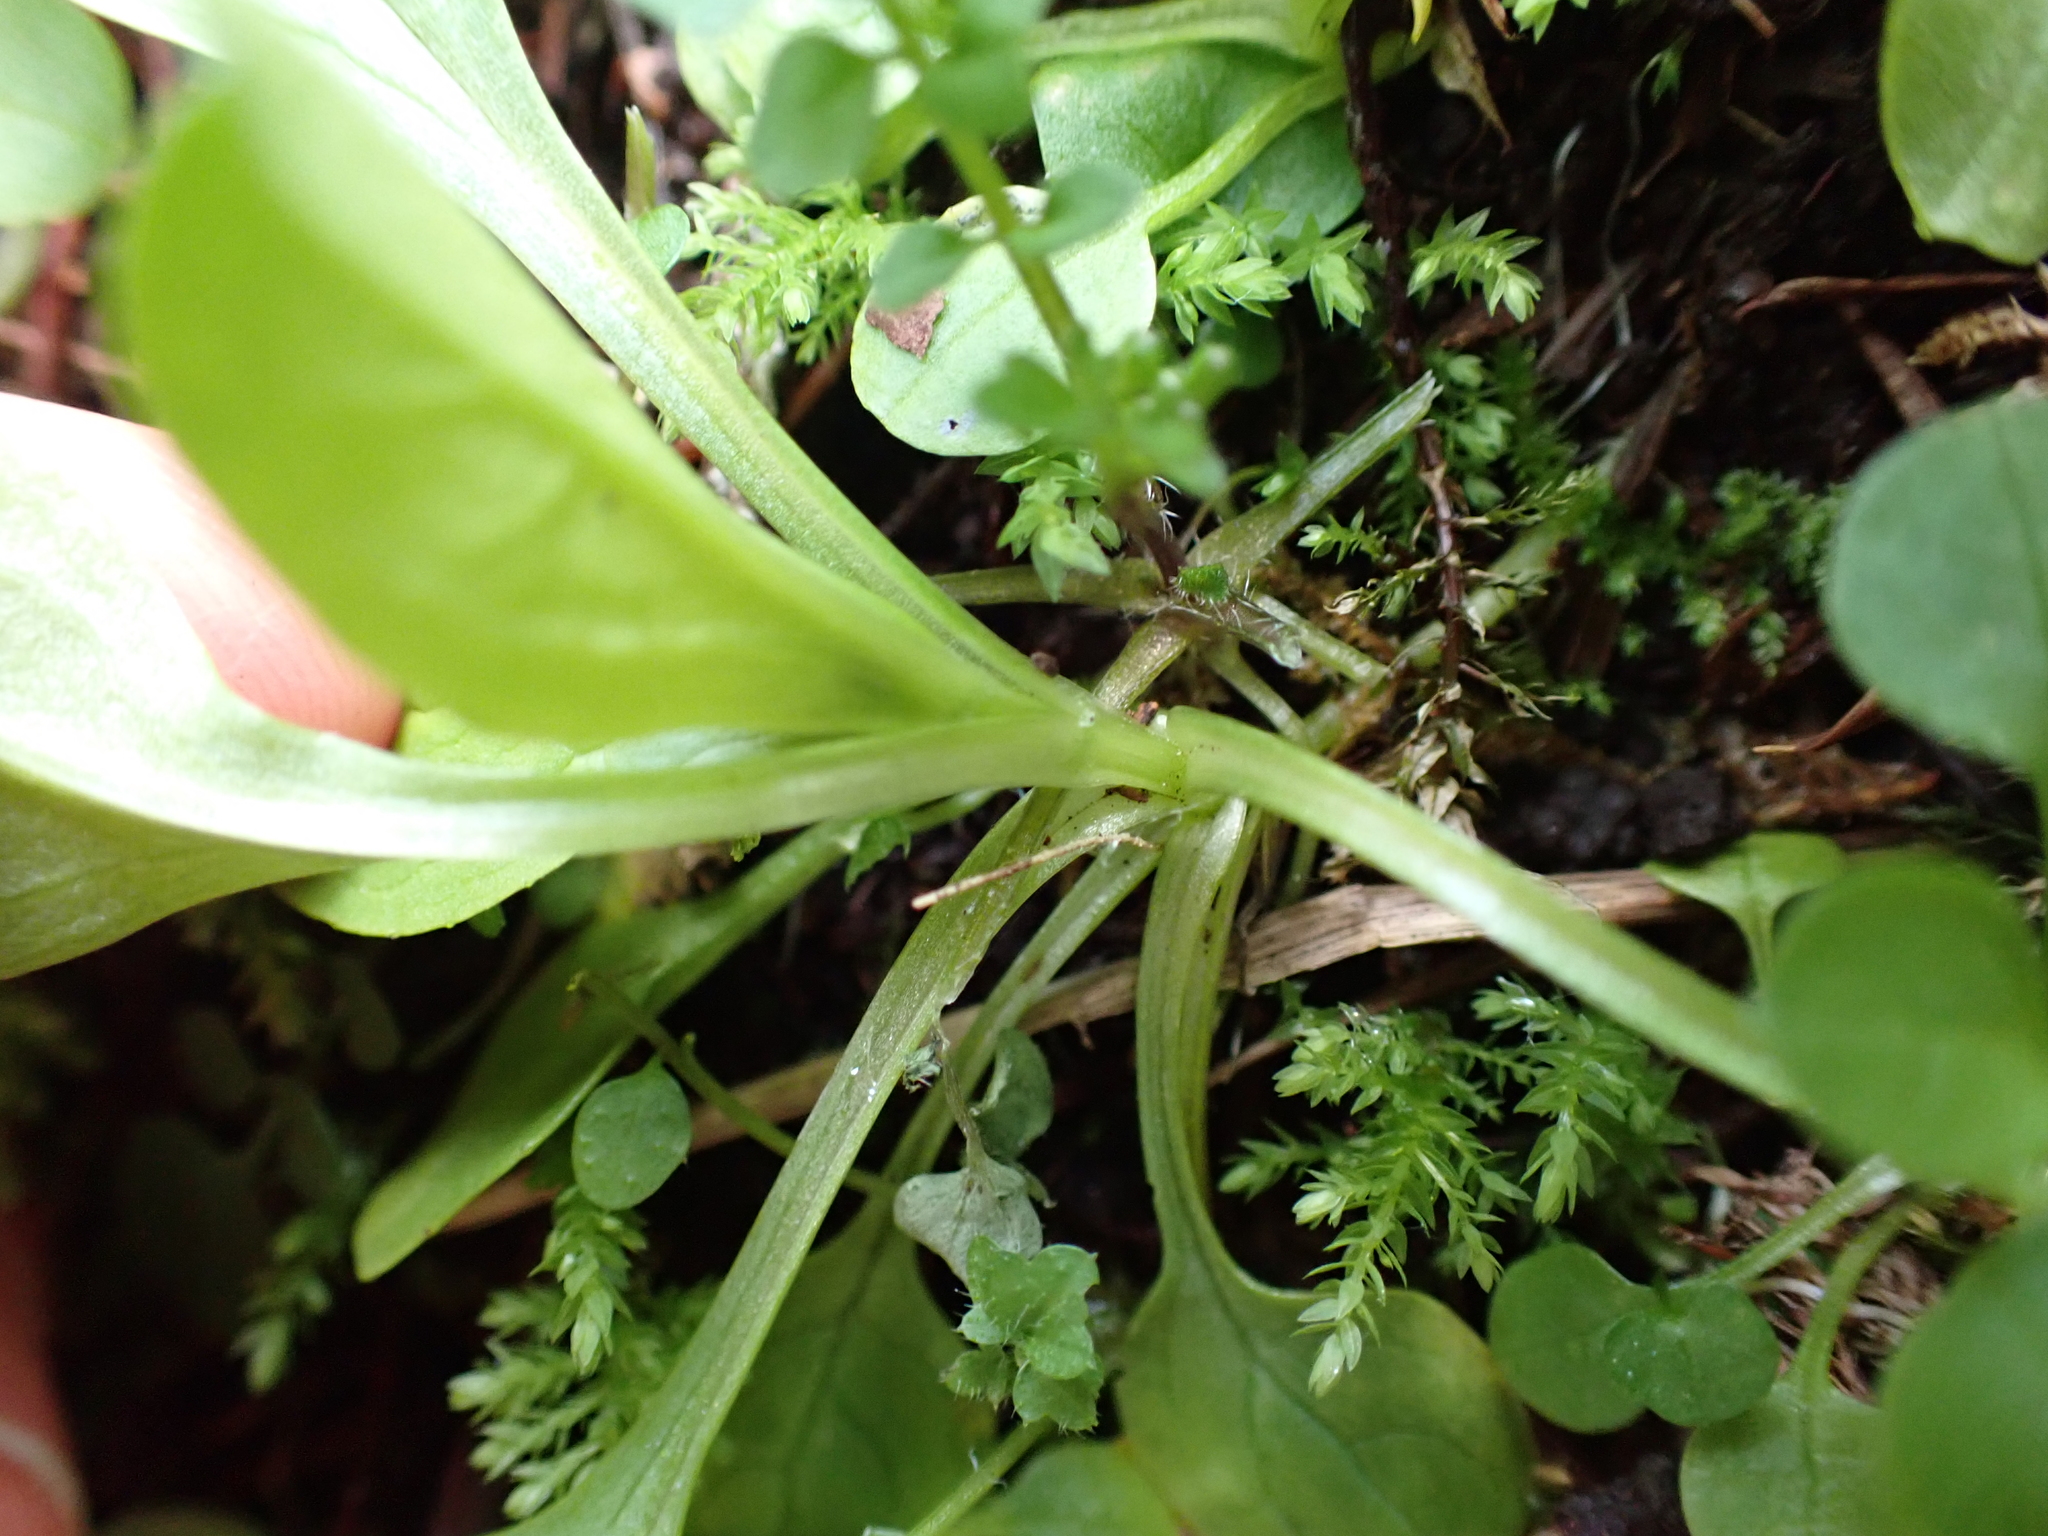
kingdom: Plantae
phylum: Tracheophyta
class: Magnoliopsida
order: Dipsacales
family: Caprifoliaceae
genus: Plectritis
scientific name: Plectritis congesta
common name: Pink plectritis
